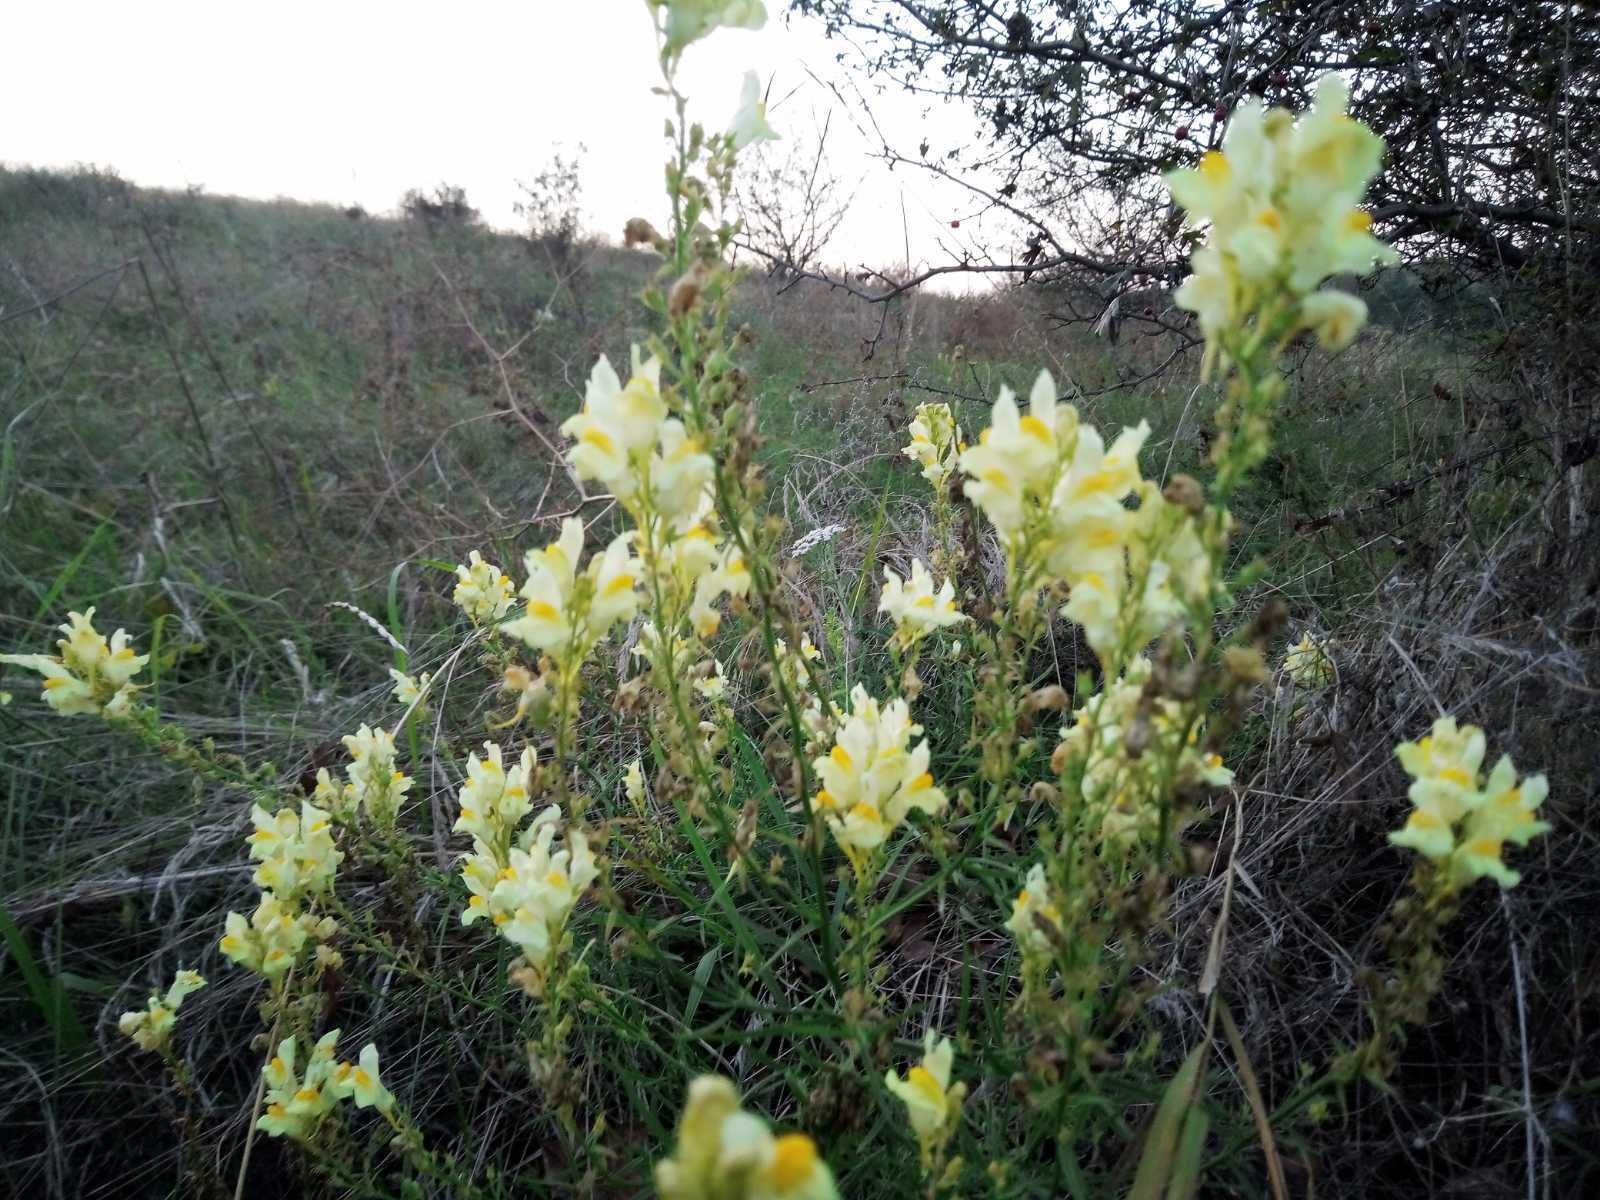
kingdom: Plantae
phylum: Tracheophyta
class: Magnoliopsida
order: Lamiales
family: Plantaginaceae
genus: Linaria
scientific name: Linaria biebersteinii
